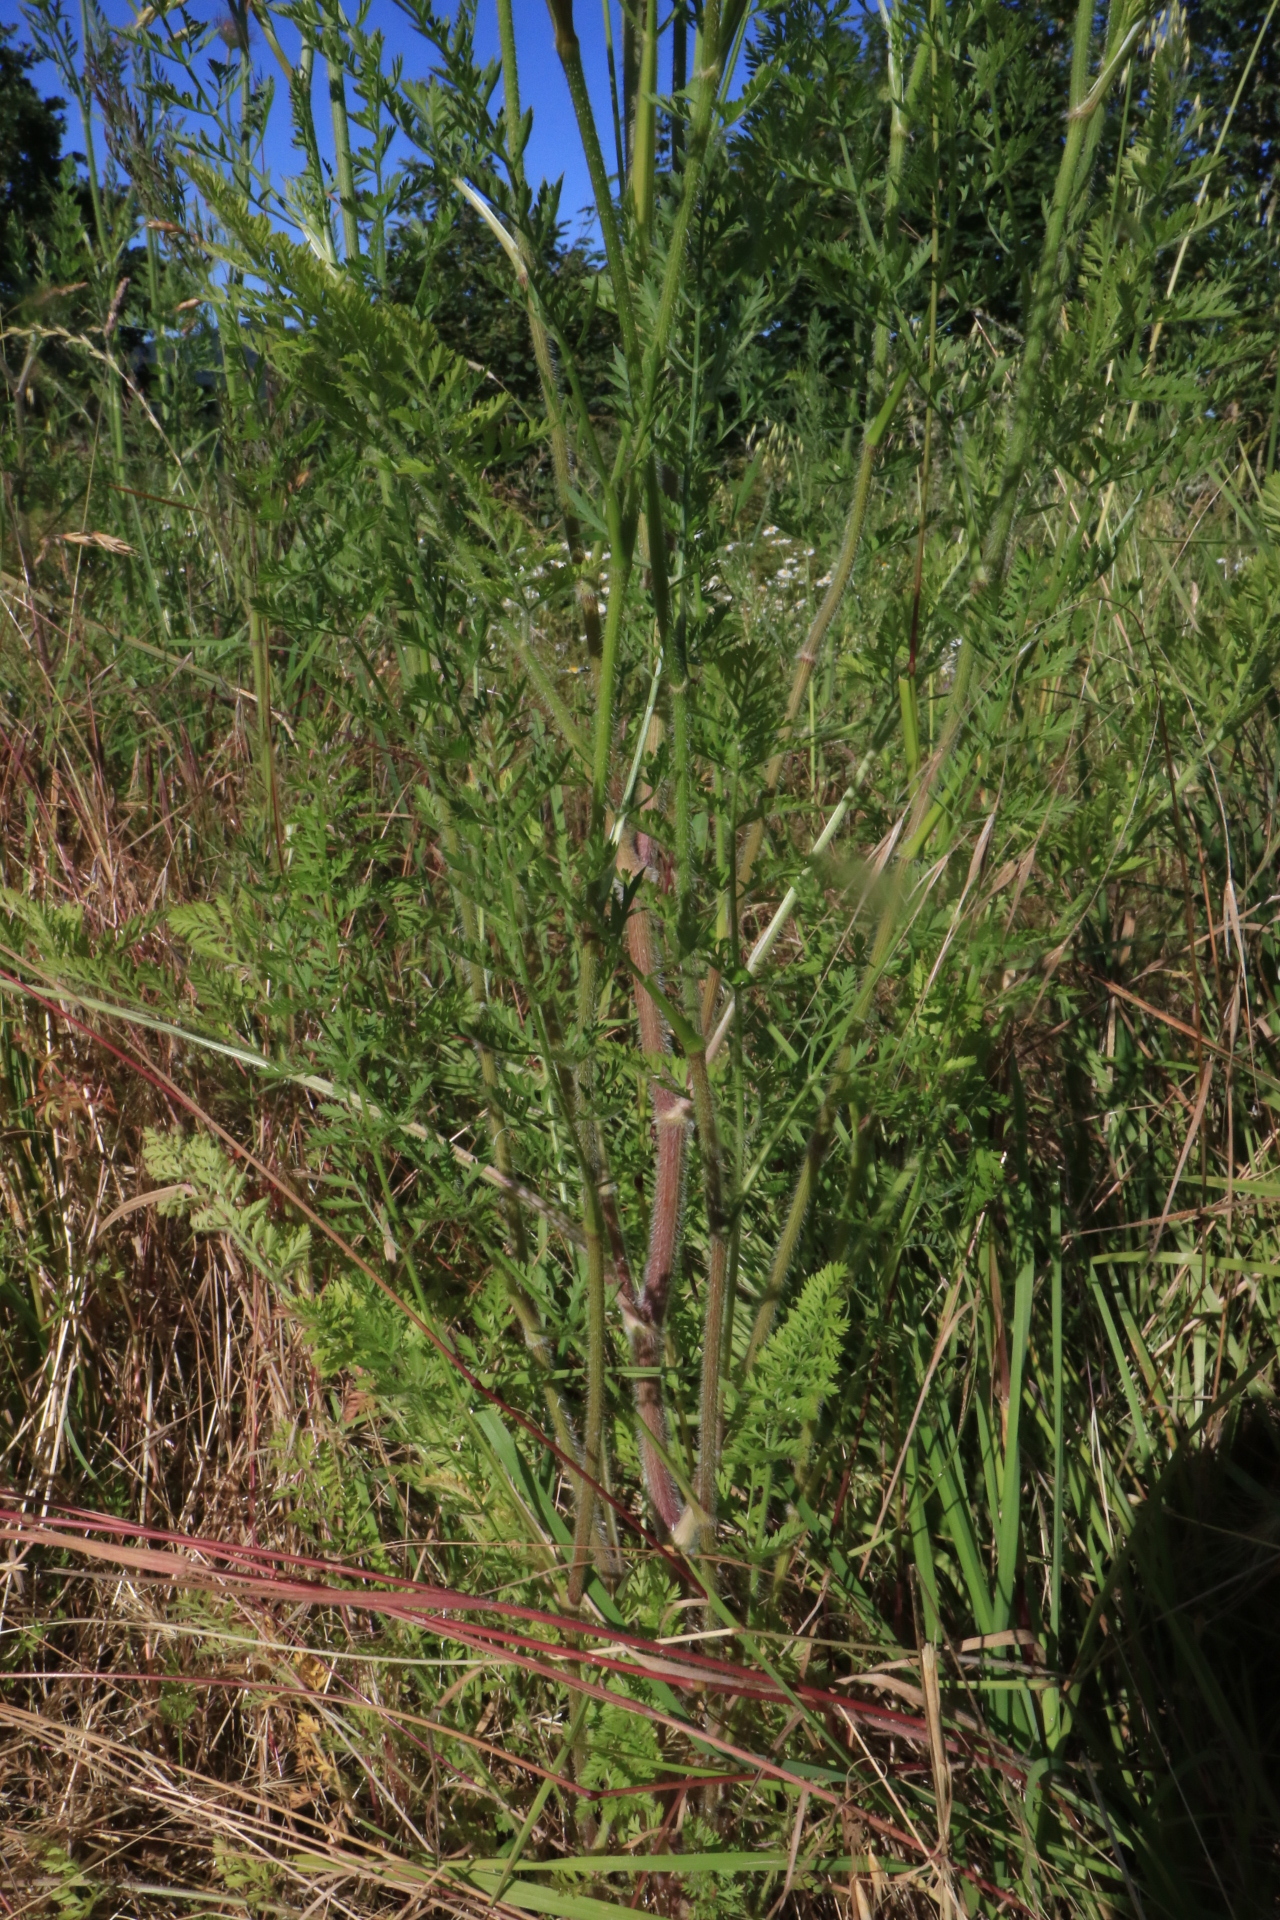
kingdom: Plantae
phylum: Tracheophyta
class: Magnoliopsida
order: Apiales
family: Apiaceae
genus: Daucus
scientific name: Daucus carota
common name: Wild carrot
